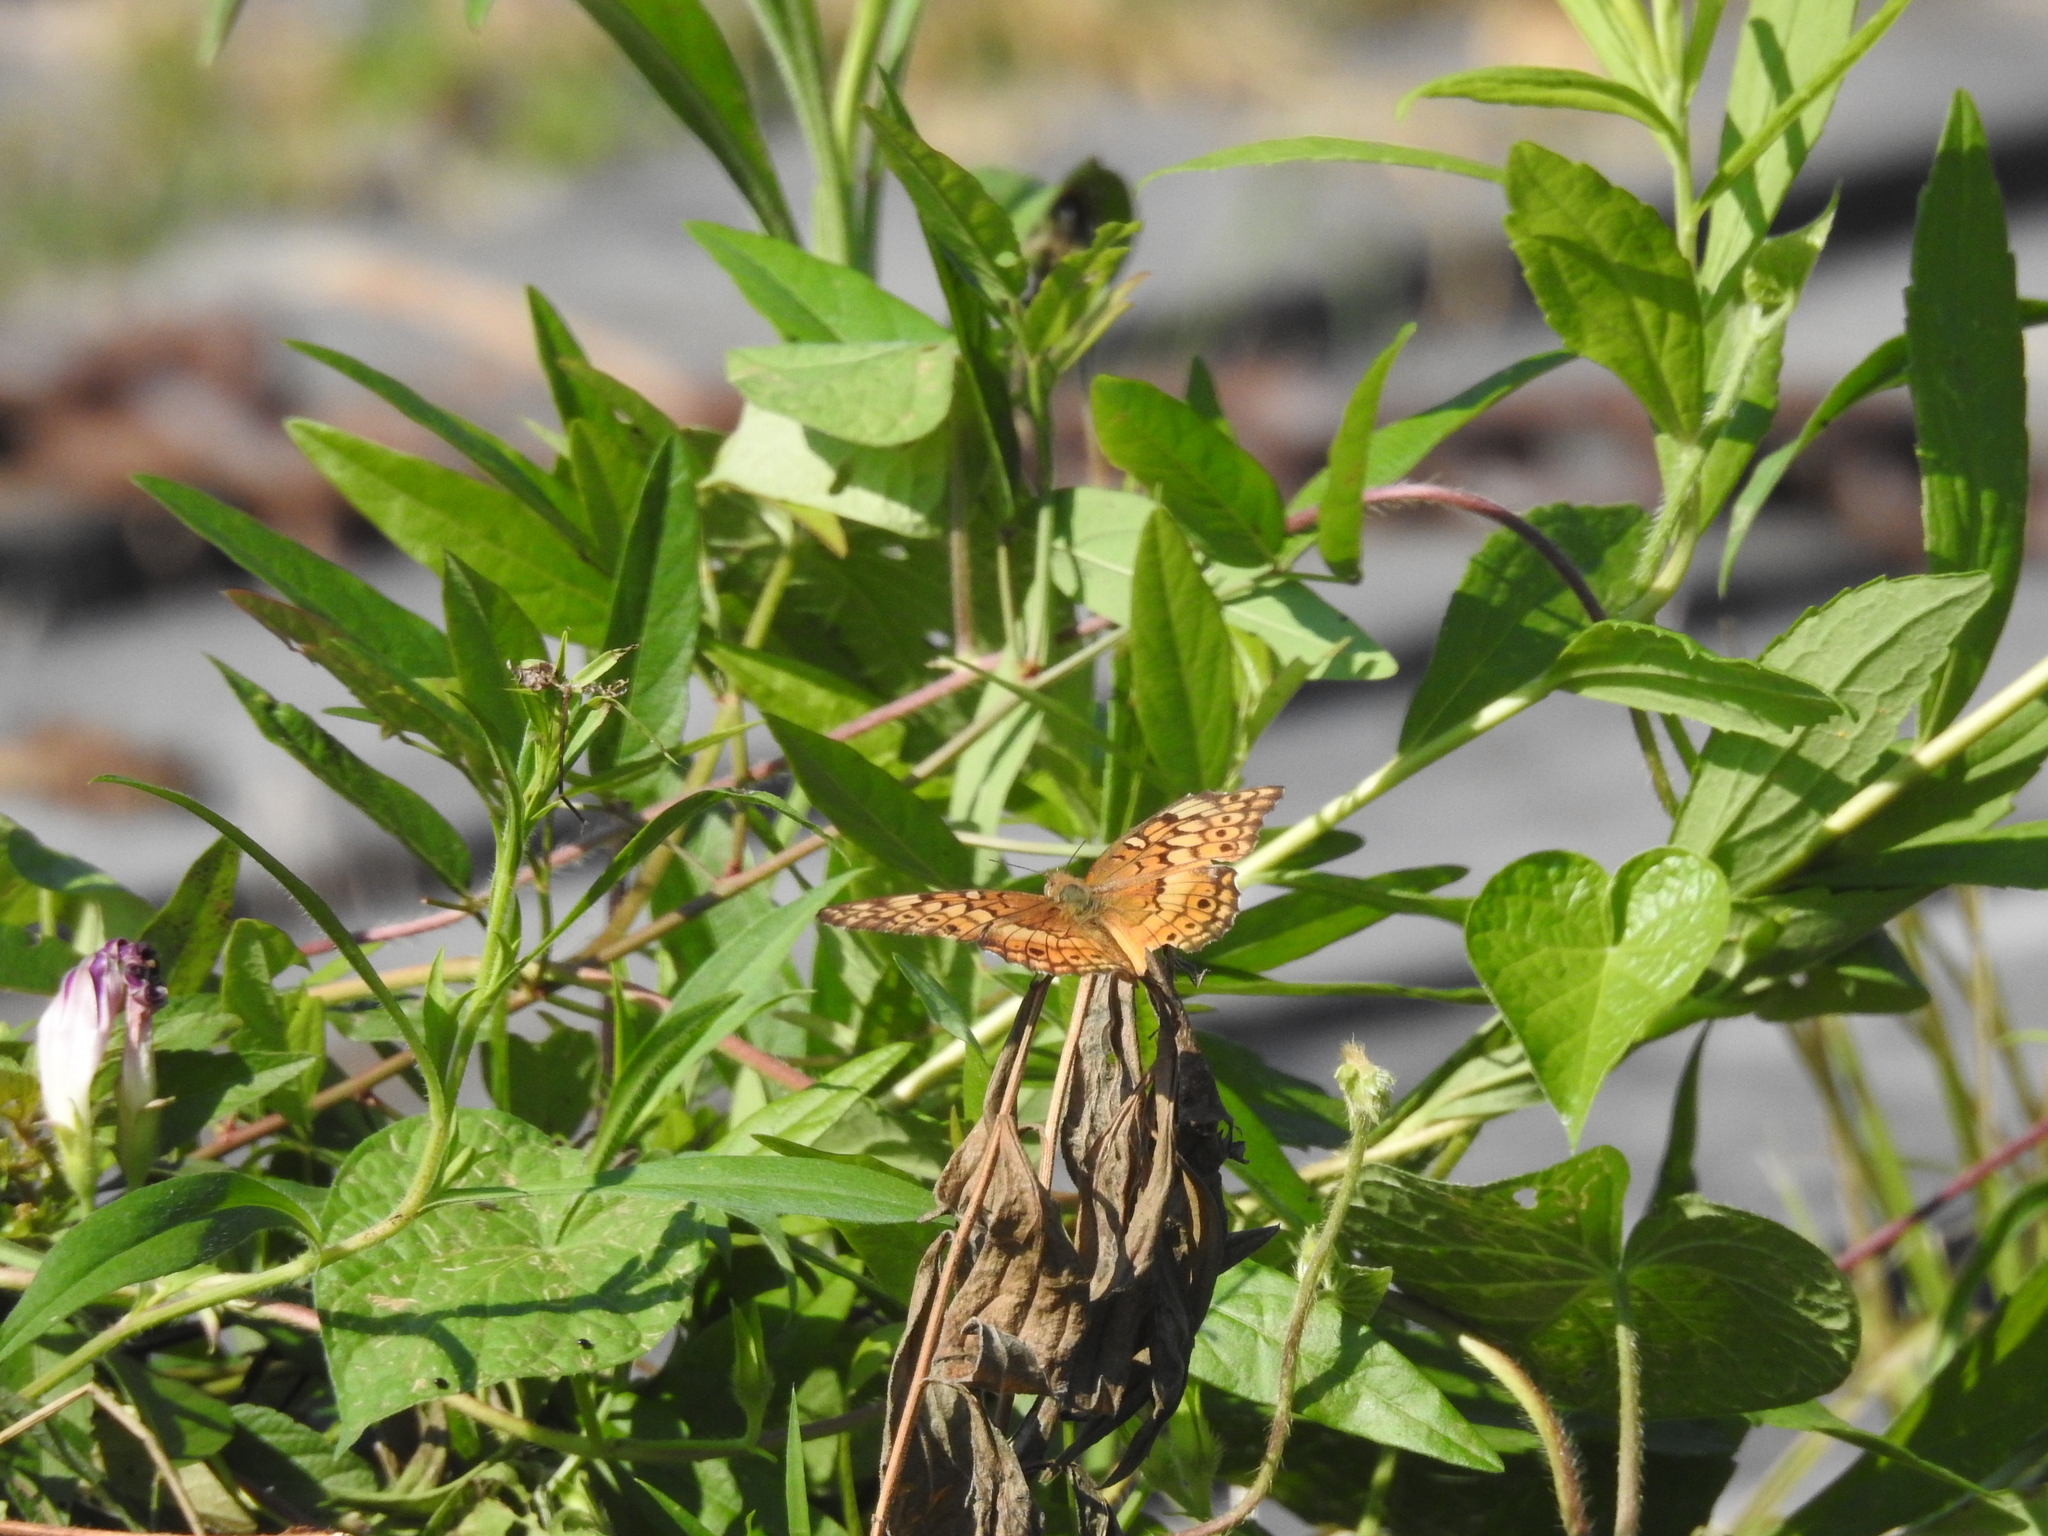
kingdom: Animalia
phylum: Arthropoda
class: Insecta
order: Lepidoptera
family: Nymphalidae
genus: Euptoieta
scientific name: Euptoieta claudia
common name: Variegated fritillary
